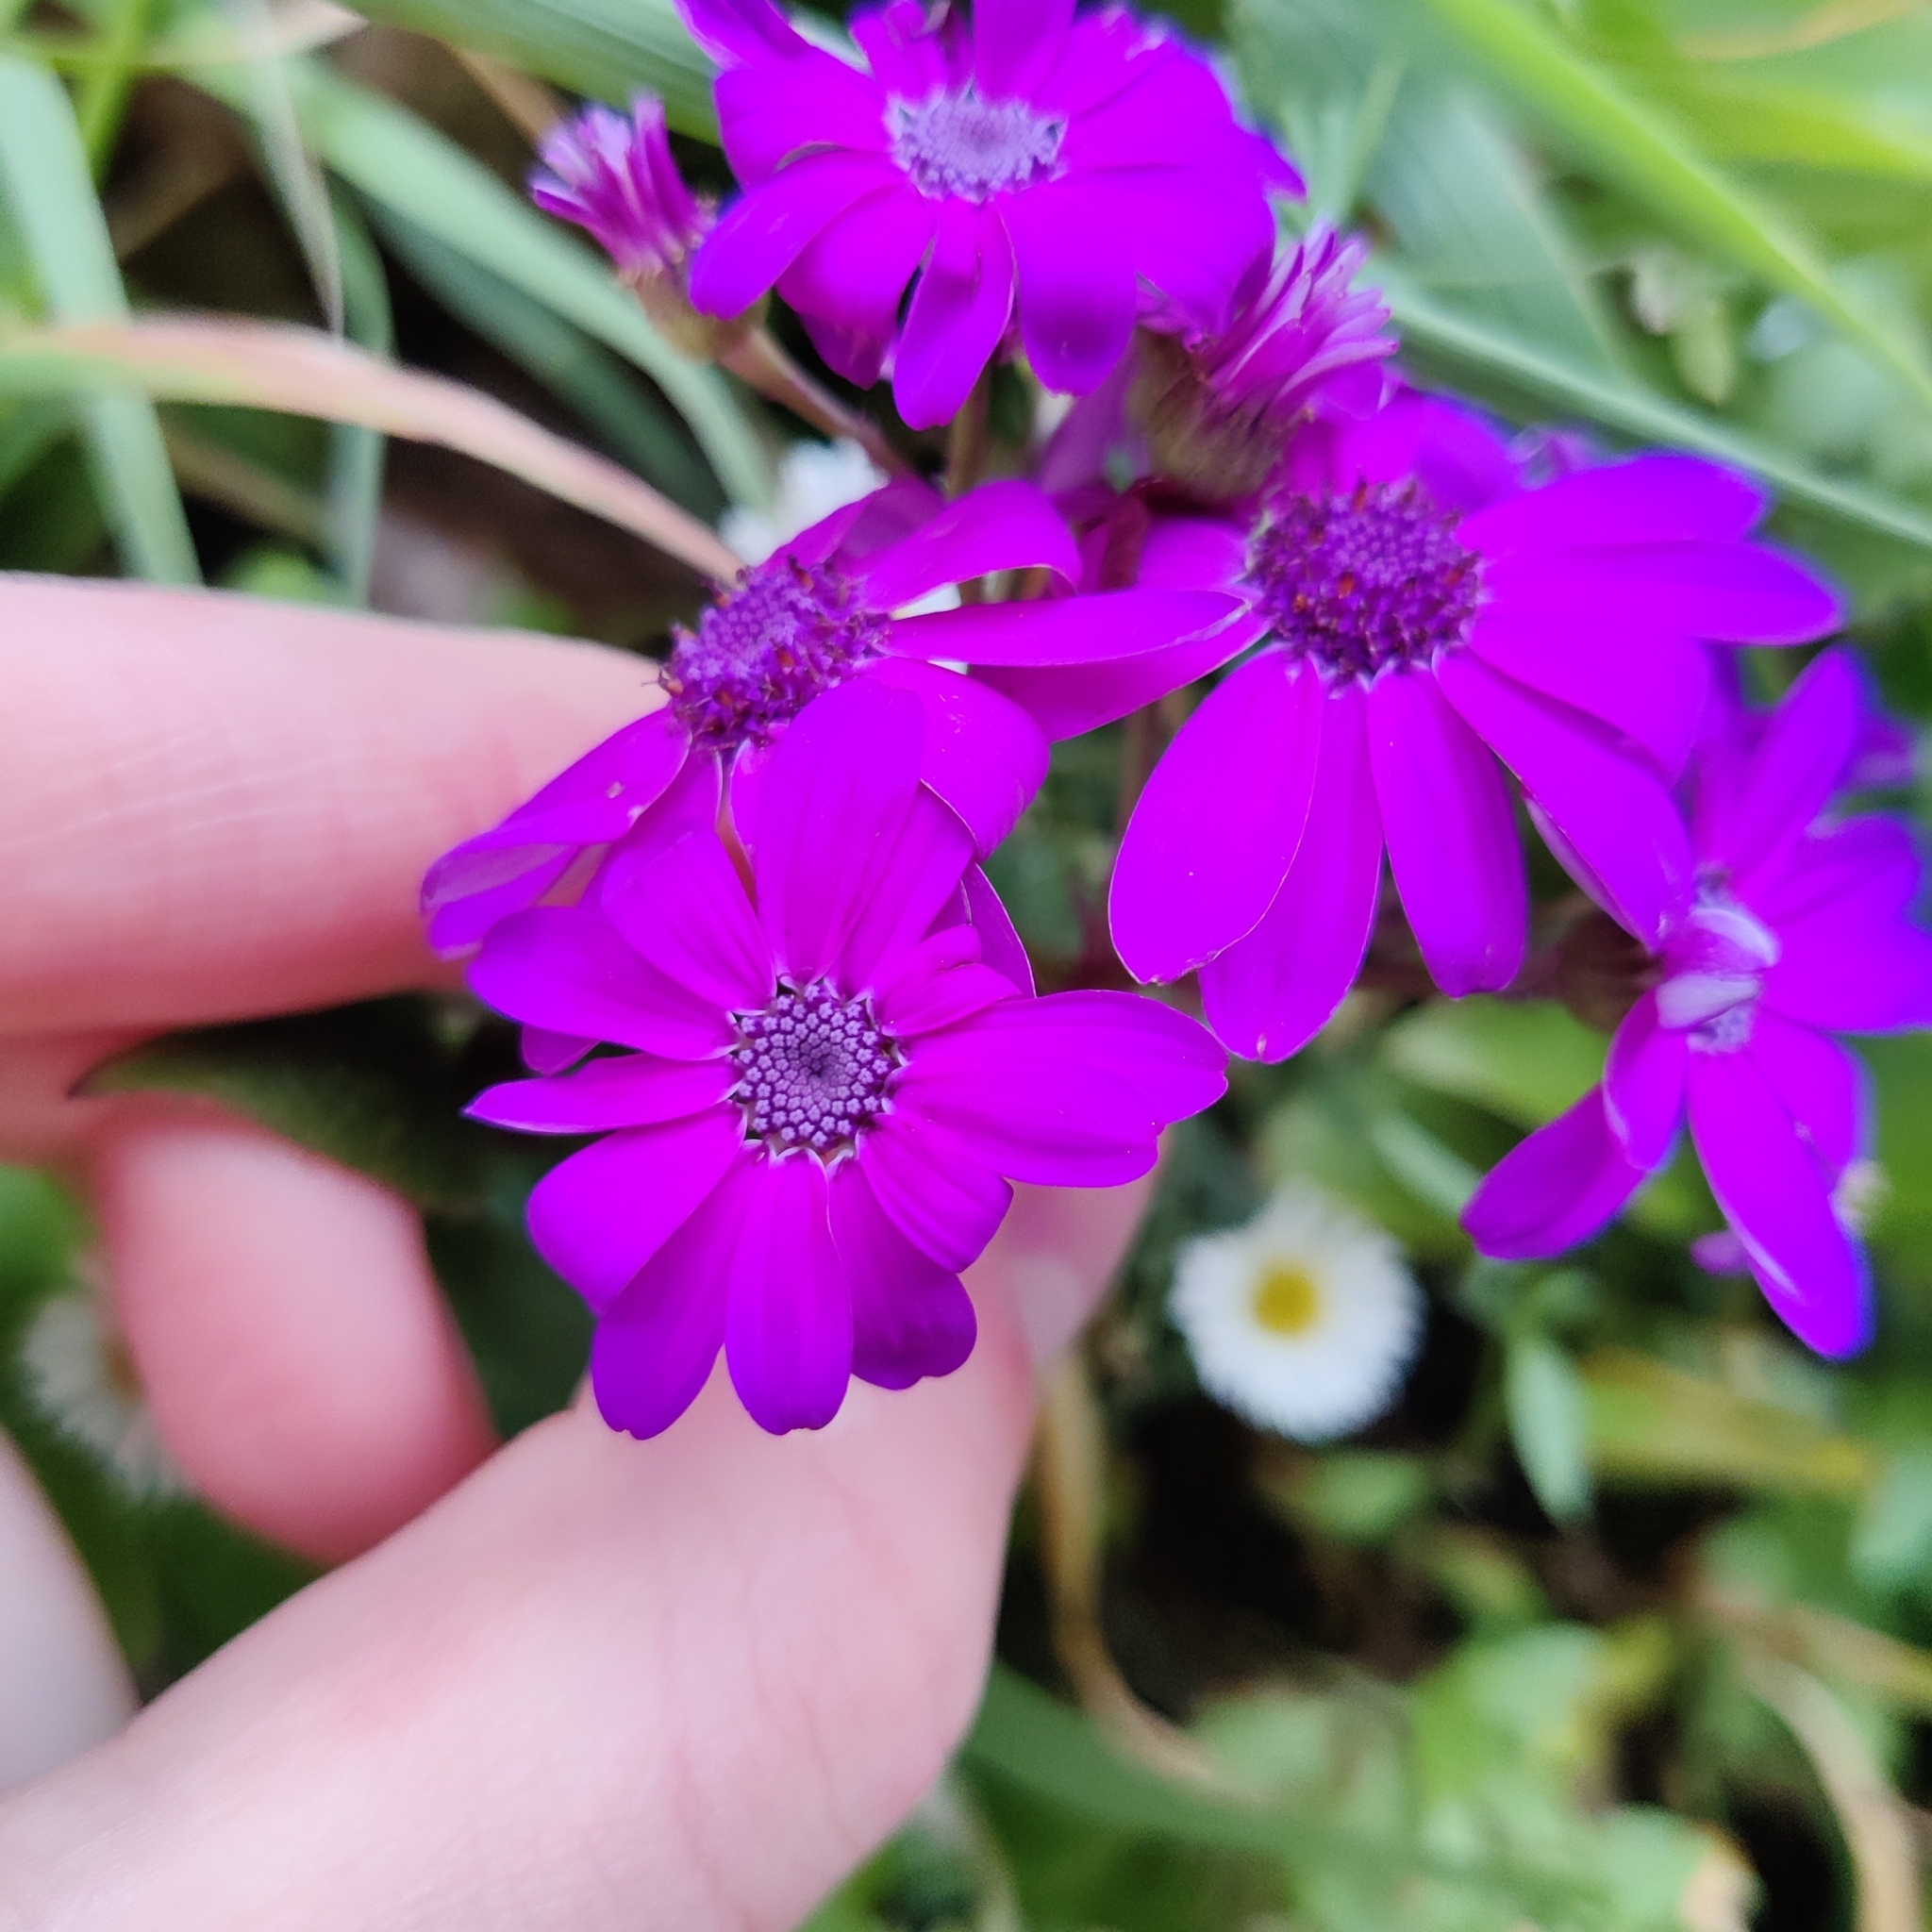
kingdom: Plantae
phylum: Tracheophyta
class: Magnoliopsida
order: Asterales
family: Asteraceae
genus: Pericallis
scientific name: Pericallis hybrida
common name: Cineraria
